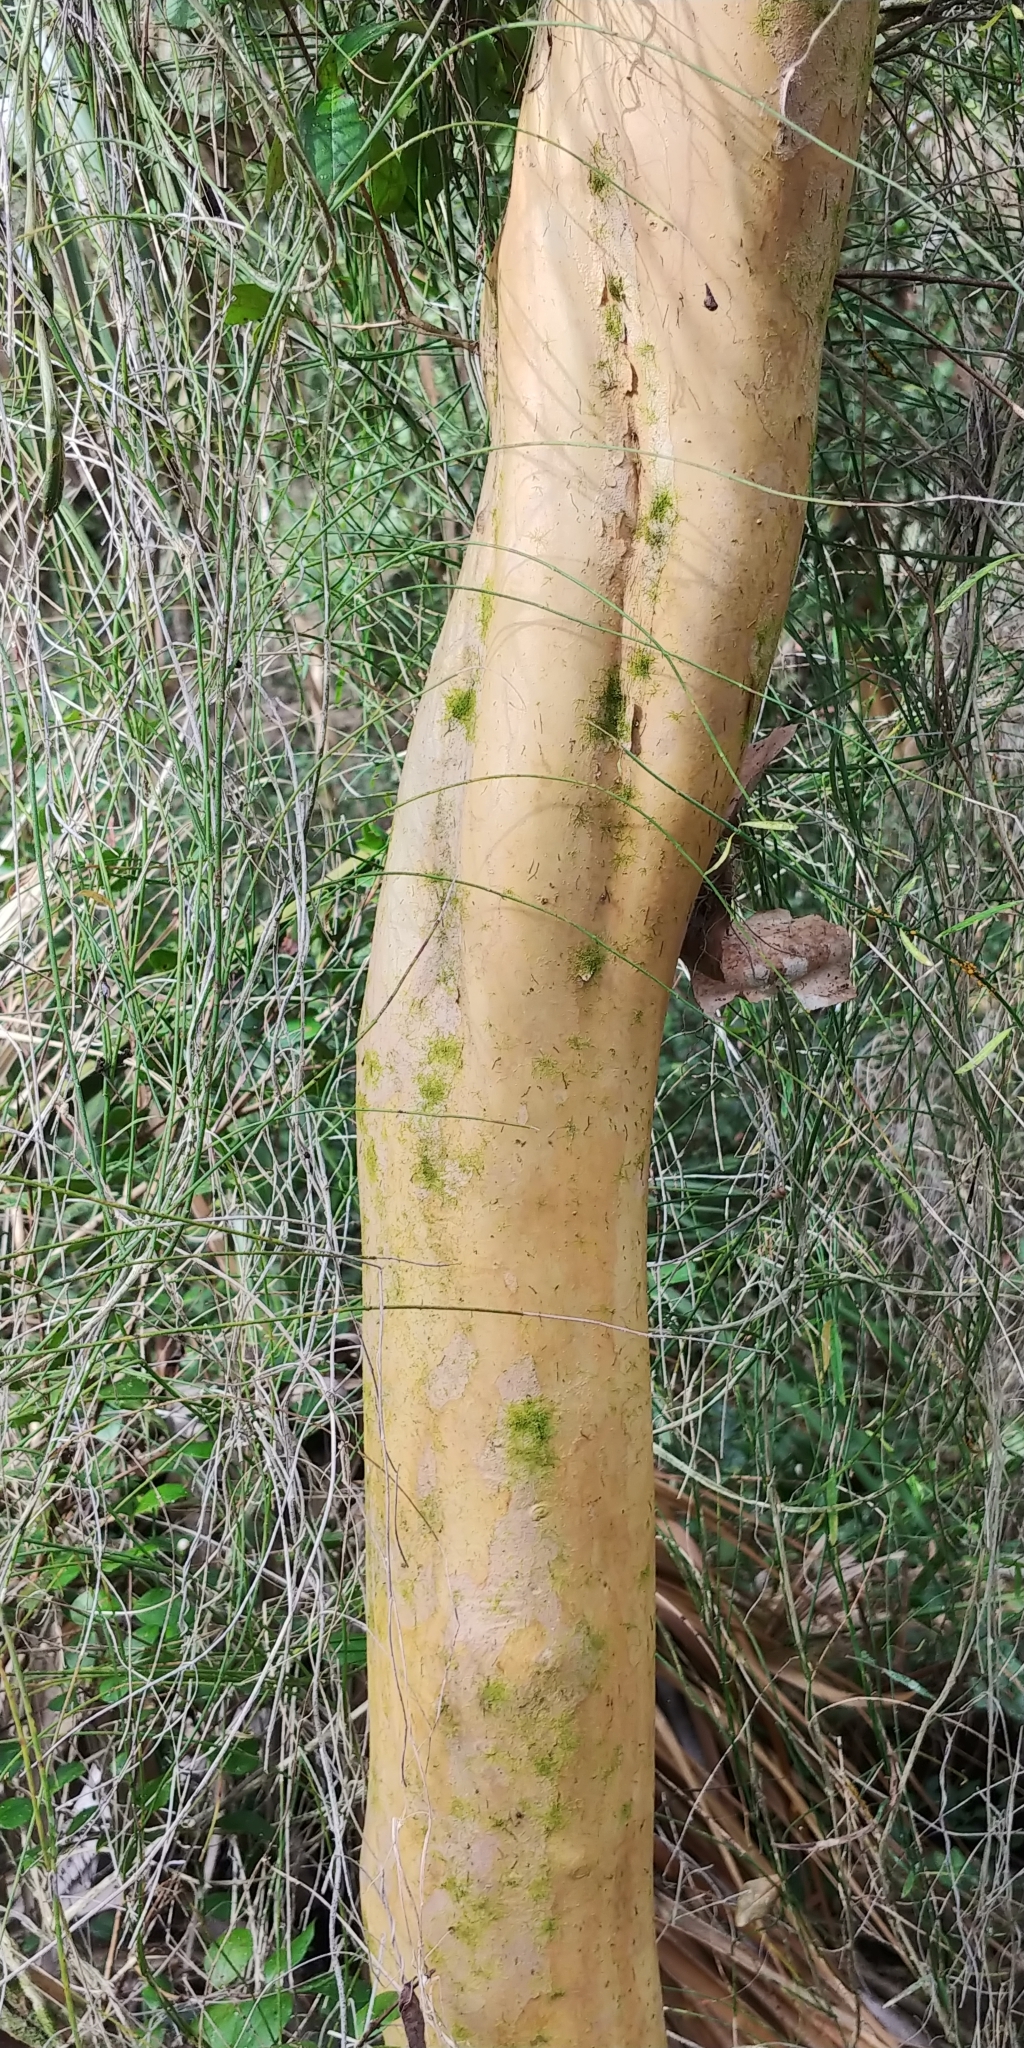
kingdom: Plantae
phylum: Tracheophyta
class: Magnoliopsida
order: Myrtales
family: Myrtaceae
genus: Myrcianthes
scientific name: Myrcianthes fragrans
